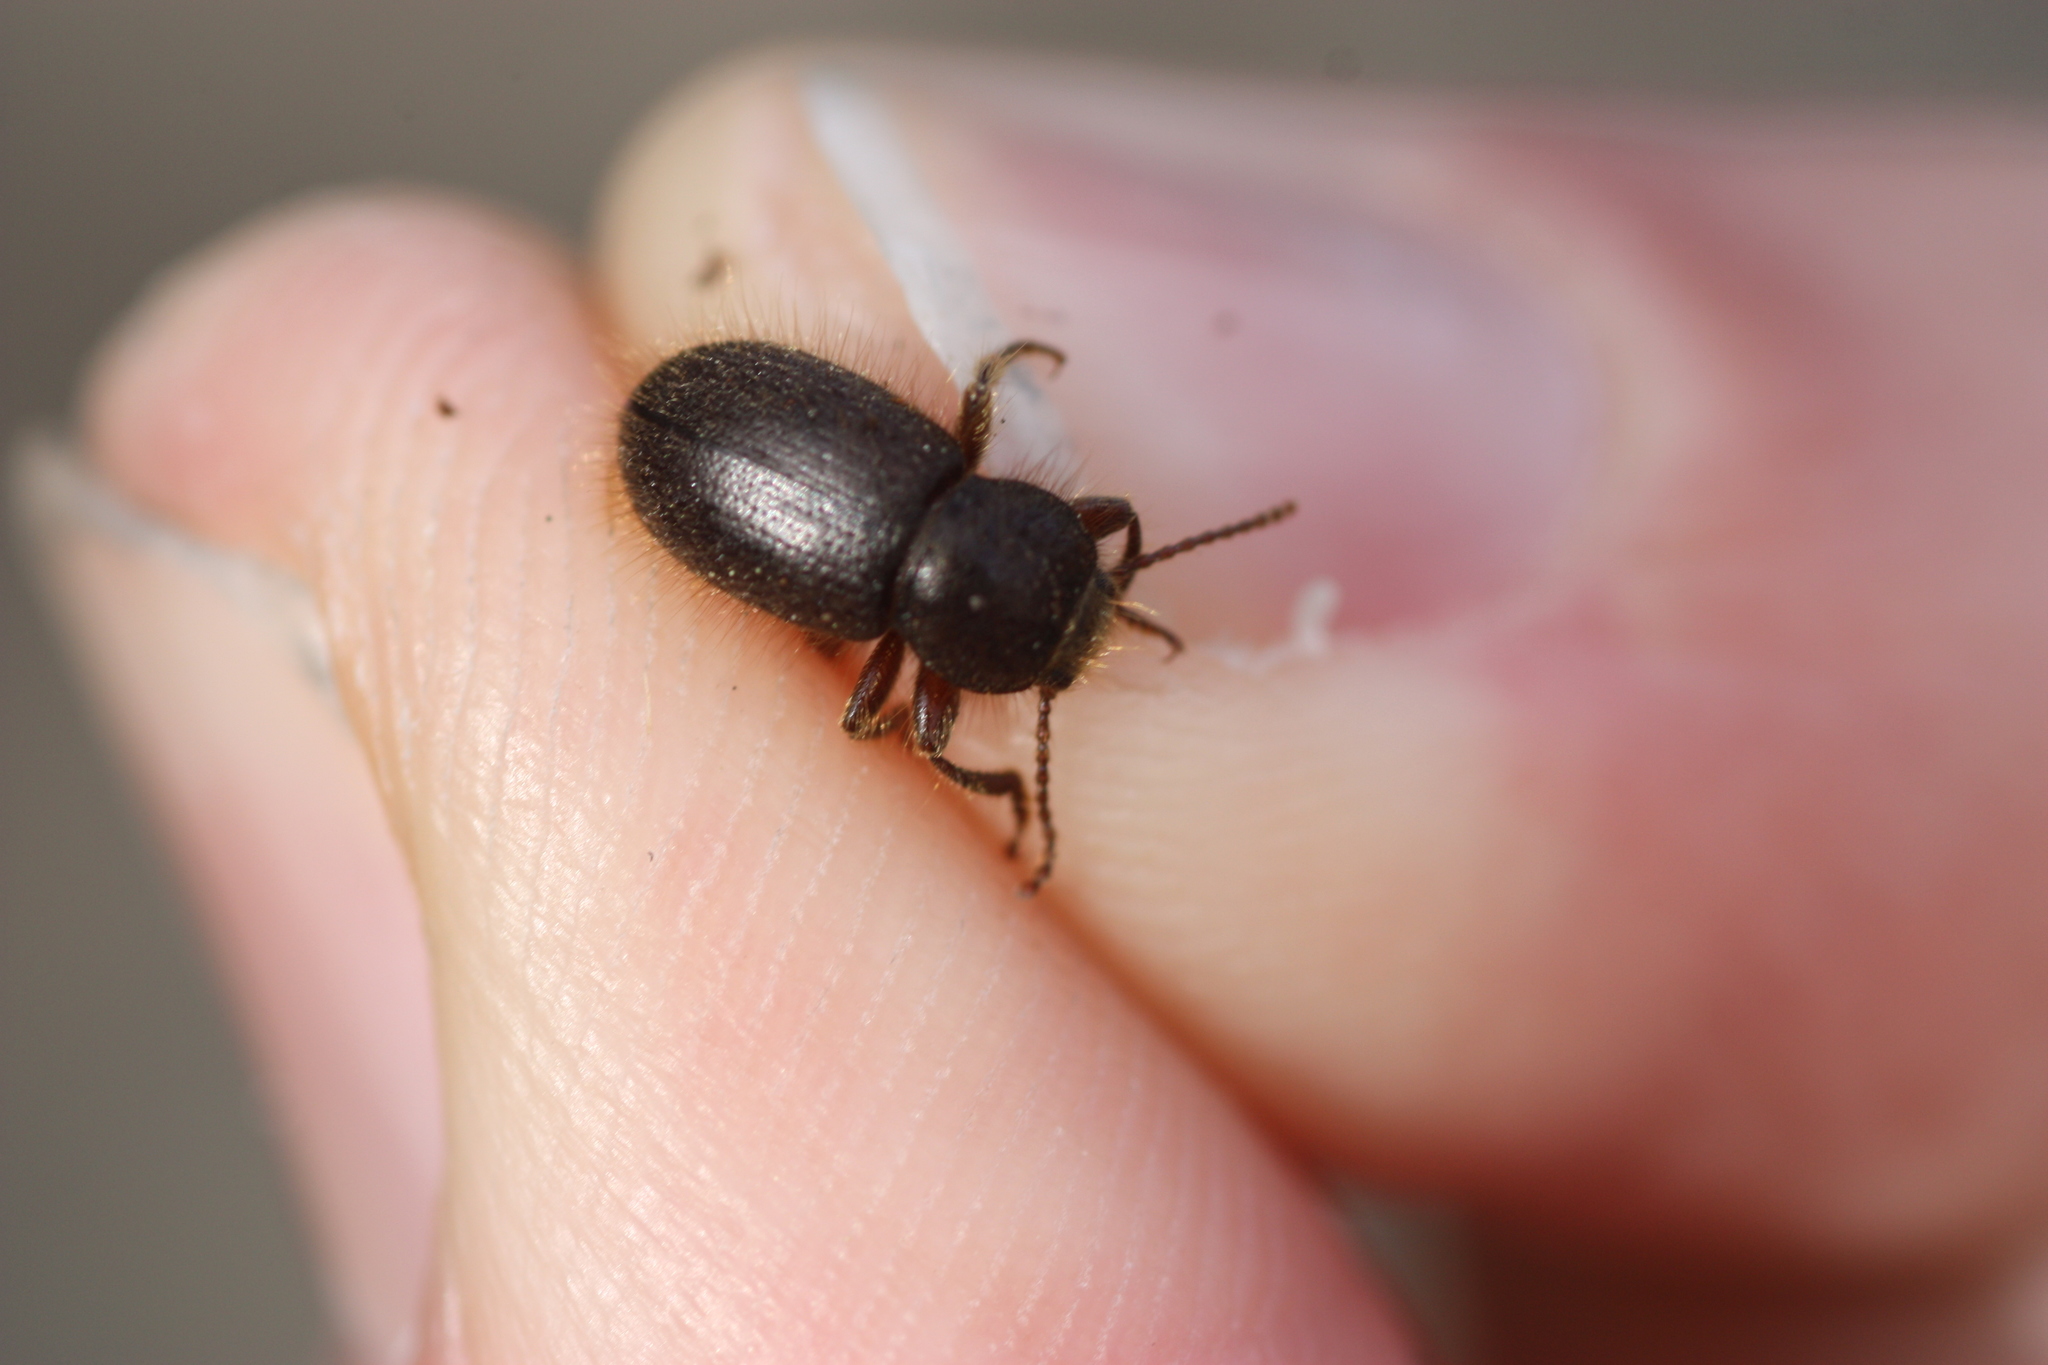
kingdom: Animalia
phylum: Arthropoda
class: Insecta
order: Coleoptera
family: Tenebrionidae
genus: Eleodes
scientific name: Eleodes littoralis
